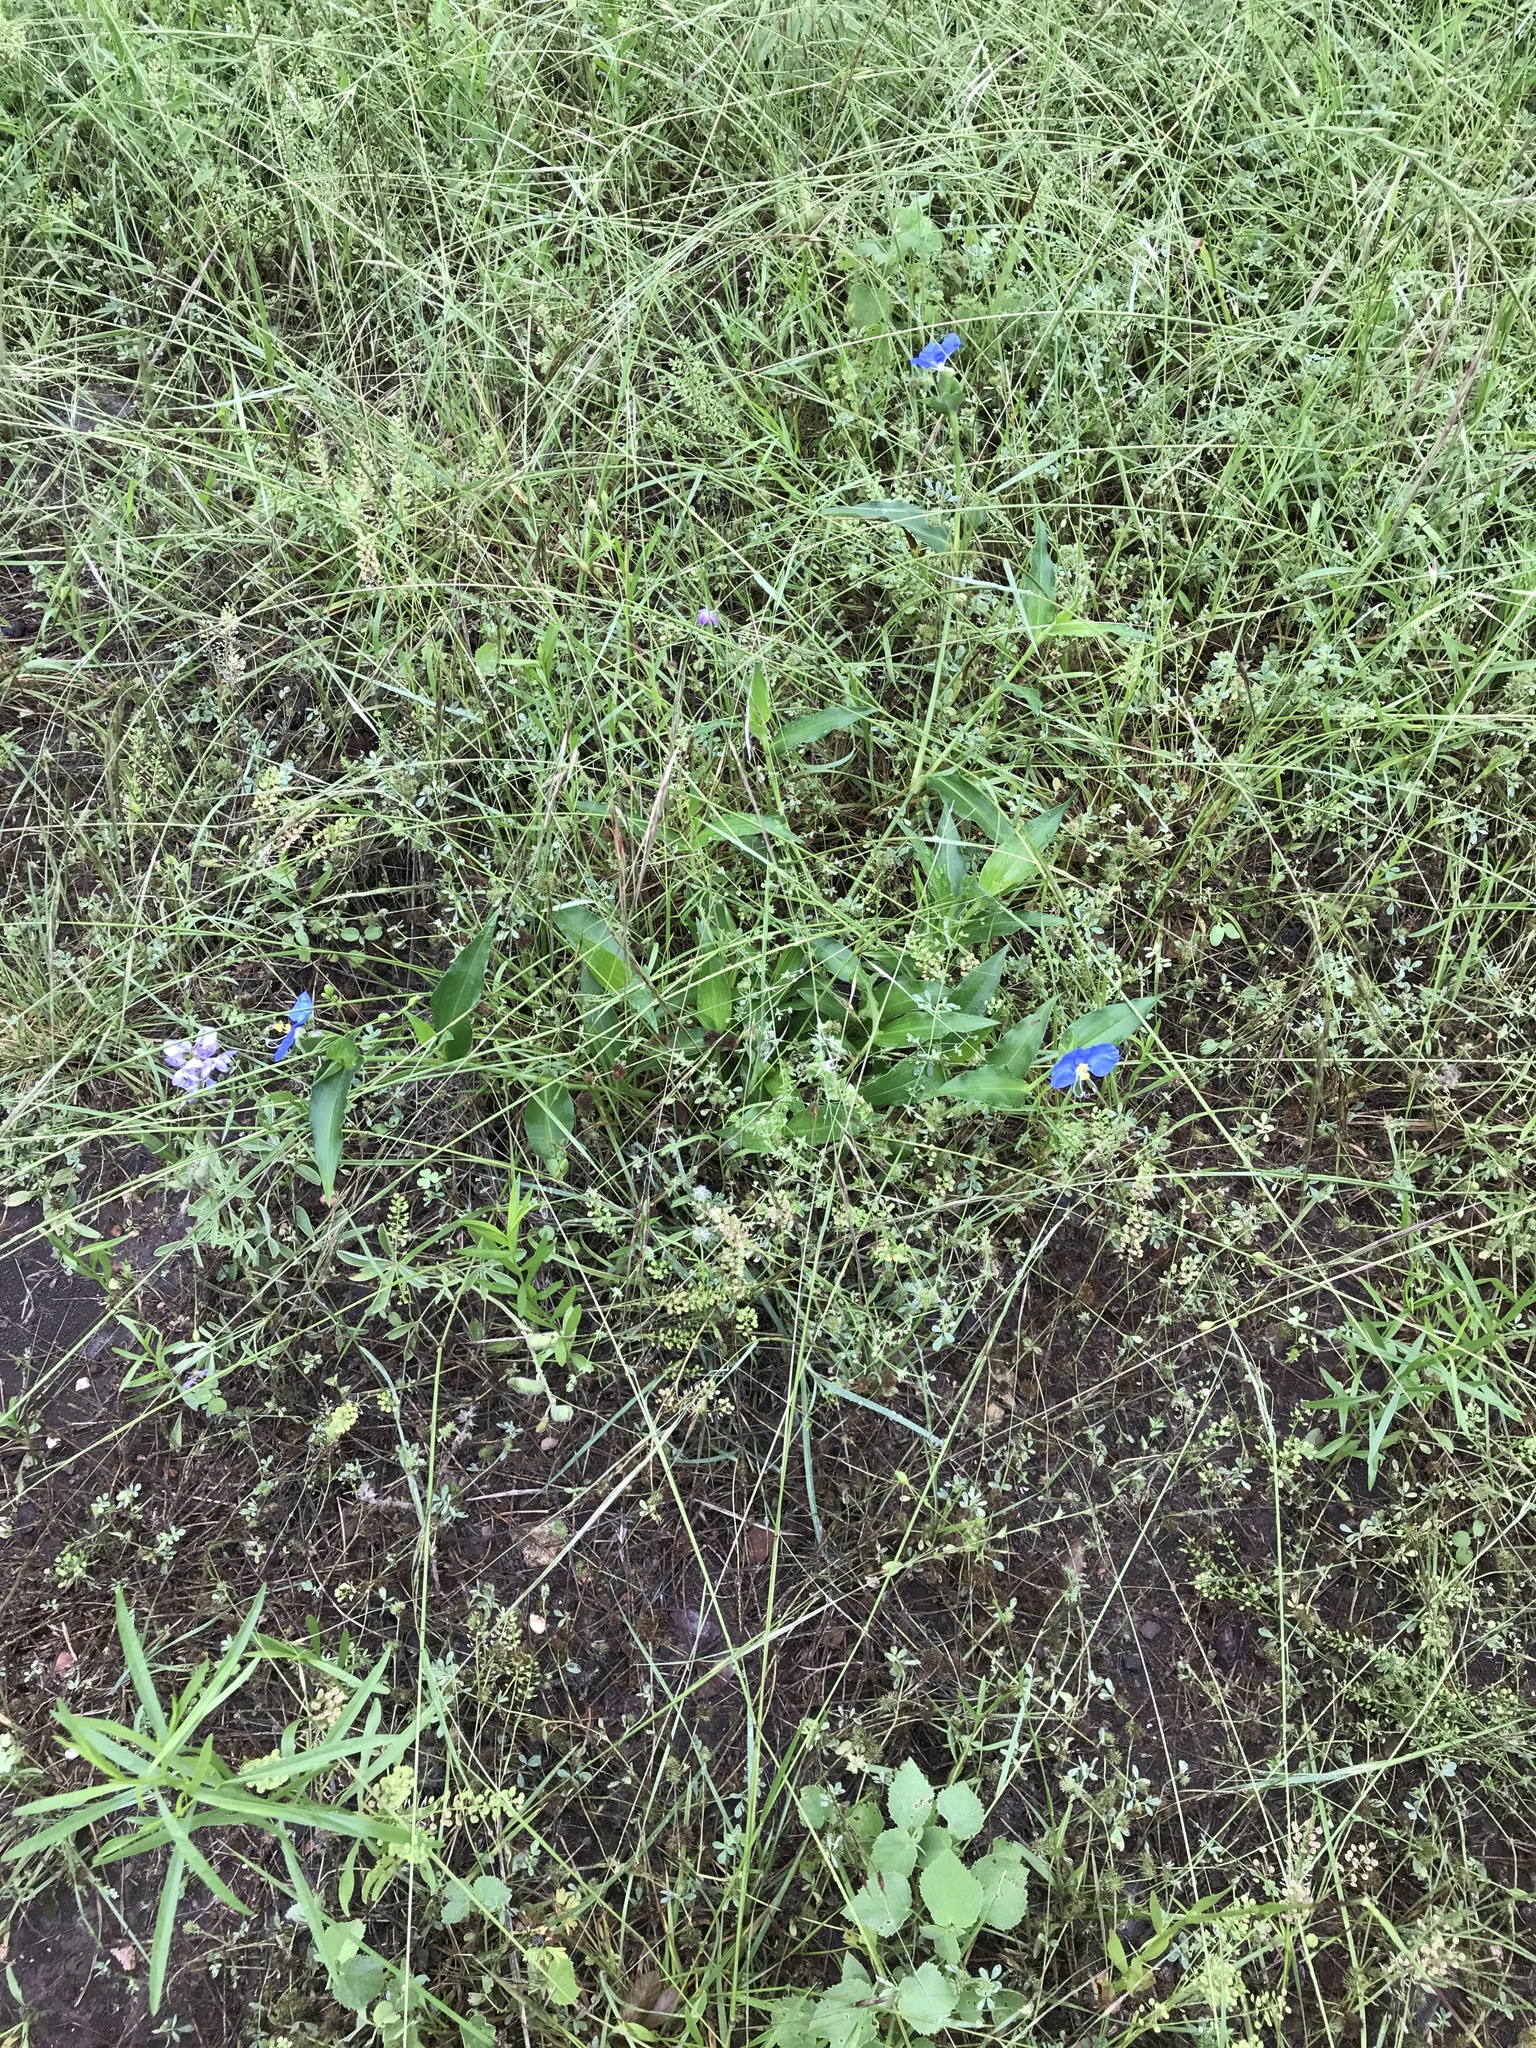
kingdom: Plantae
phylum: Tracheophyta
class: Liliopsida
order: Commelinales
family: Commelinaceae
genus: Commelina
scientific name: Commelina erecta
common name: Blousel blommetjie
